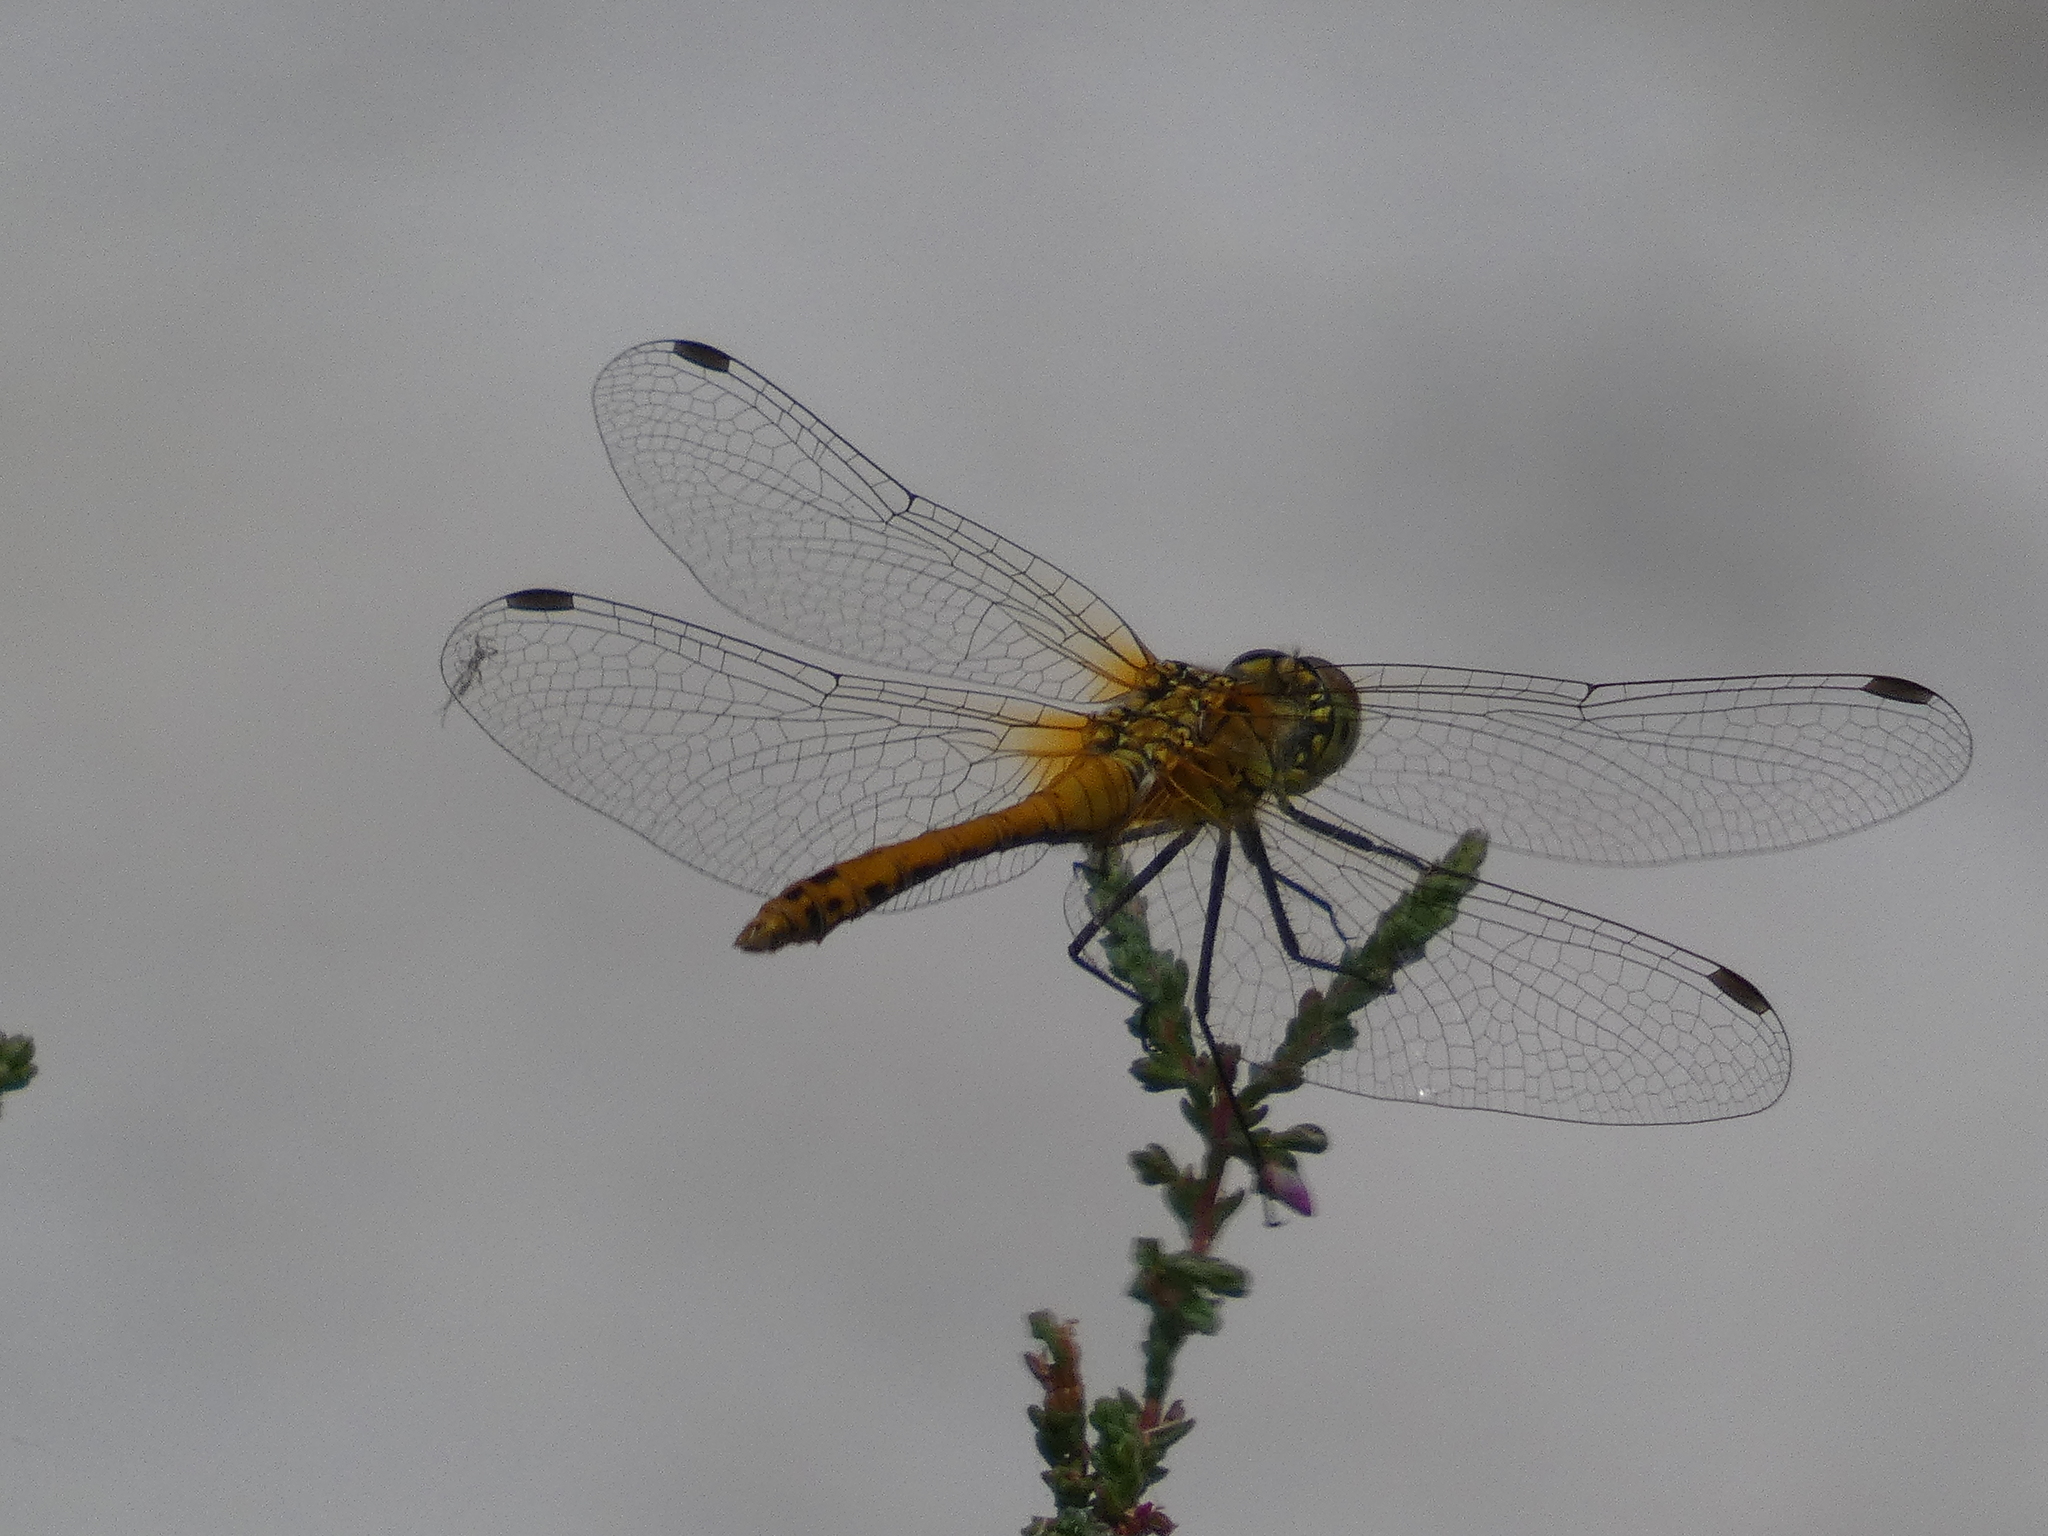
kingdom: Animalia
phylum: Arthropoda
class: Insecta
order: Odonata
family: Libellulidae
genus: Sympetrum
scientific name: Sympetrum sanguineum
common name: Ruddy darter
